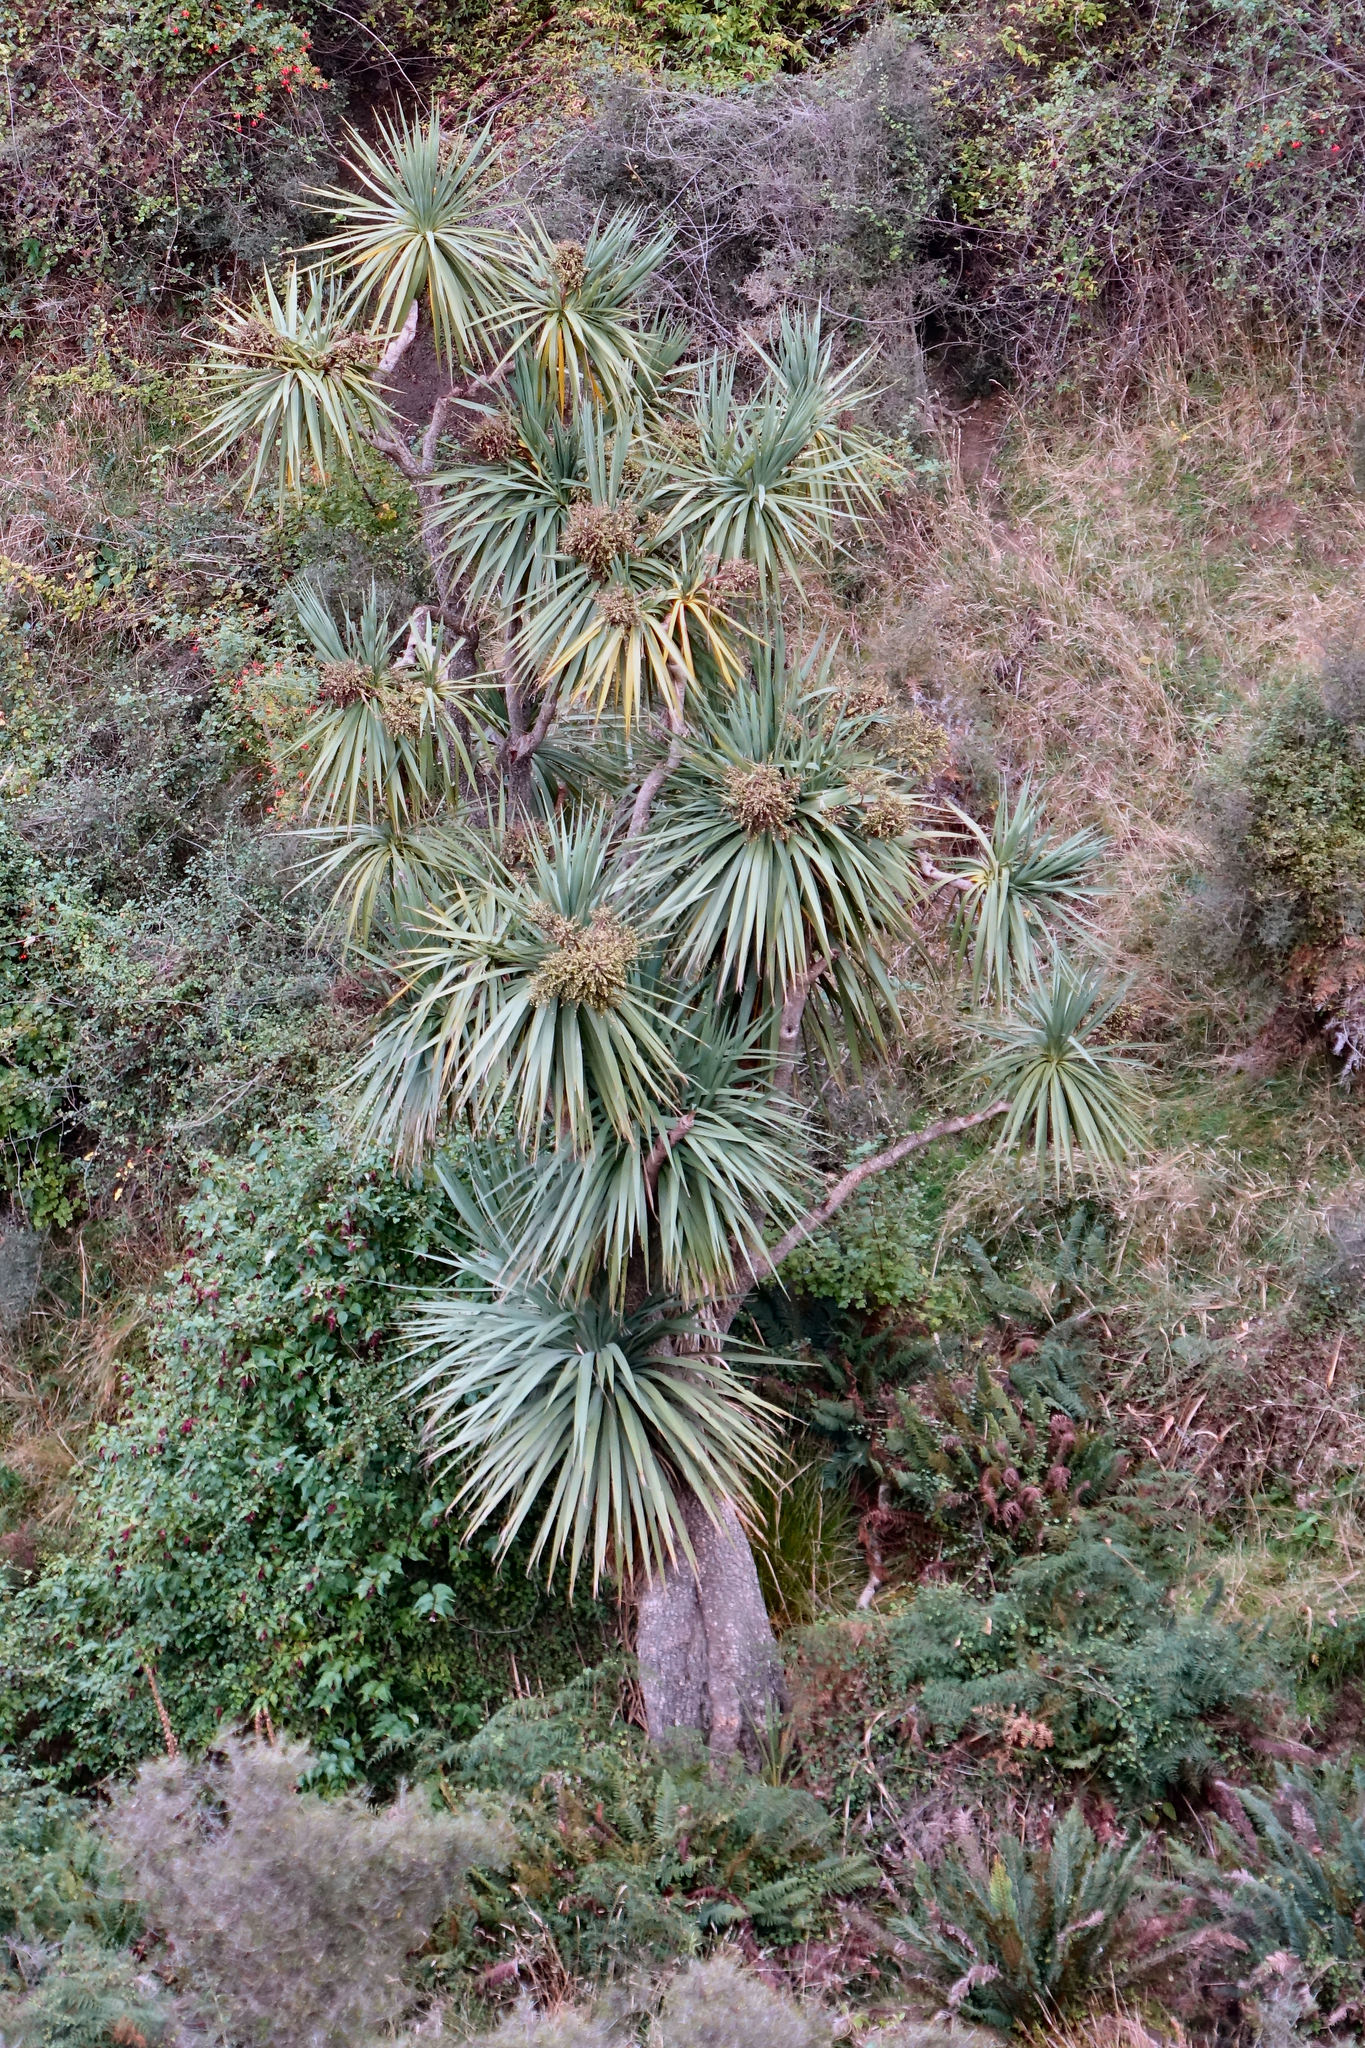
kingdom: Plantae
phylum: Tracheophyta
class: Liliopsida
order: Asparagales
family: Asparagaceae
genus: Cordyline
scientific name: Cordyline australis
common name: Cabbage-palm
